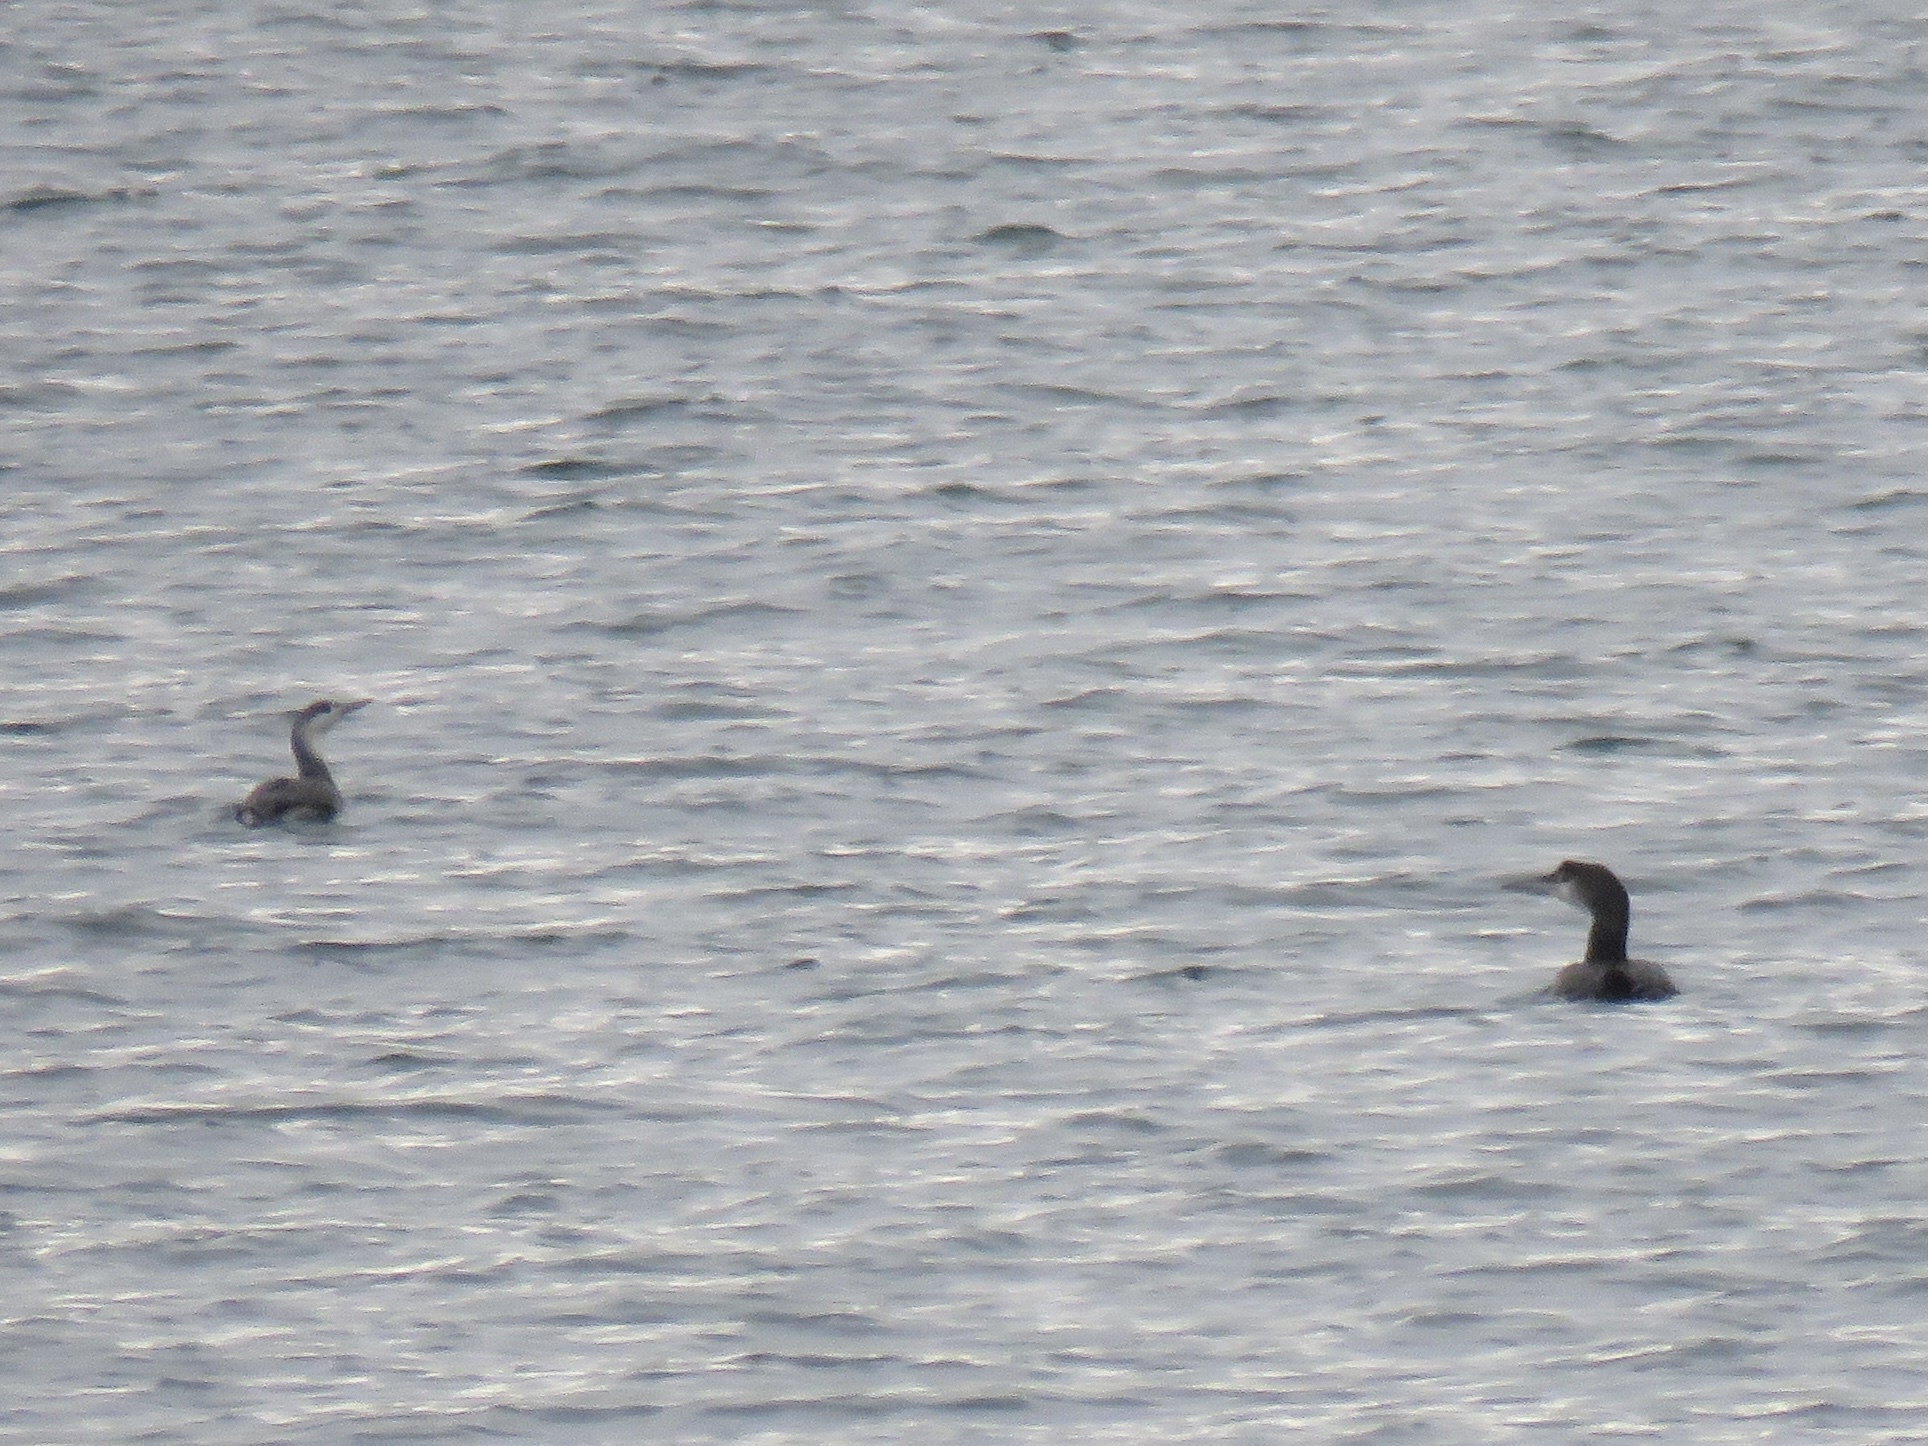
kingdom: Animalia
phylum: Chordata
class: Aves
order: Gaviiformes
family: Gaviidae
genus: Gavia
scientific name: Gavia immer
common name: Common loon
